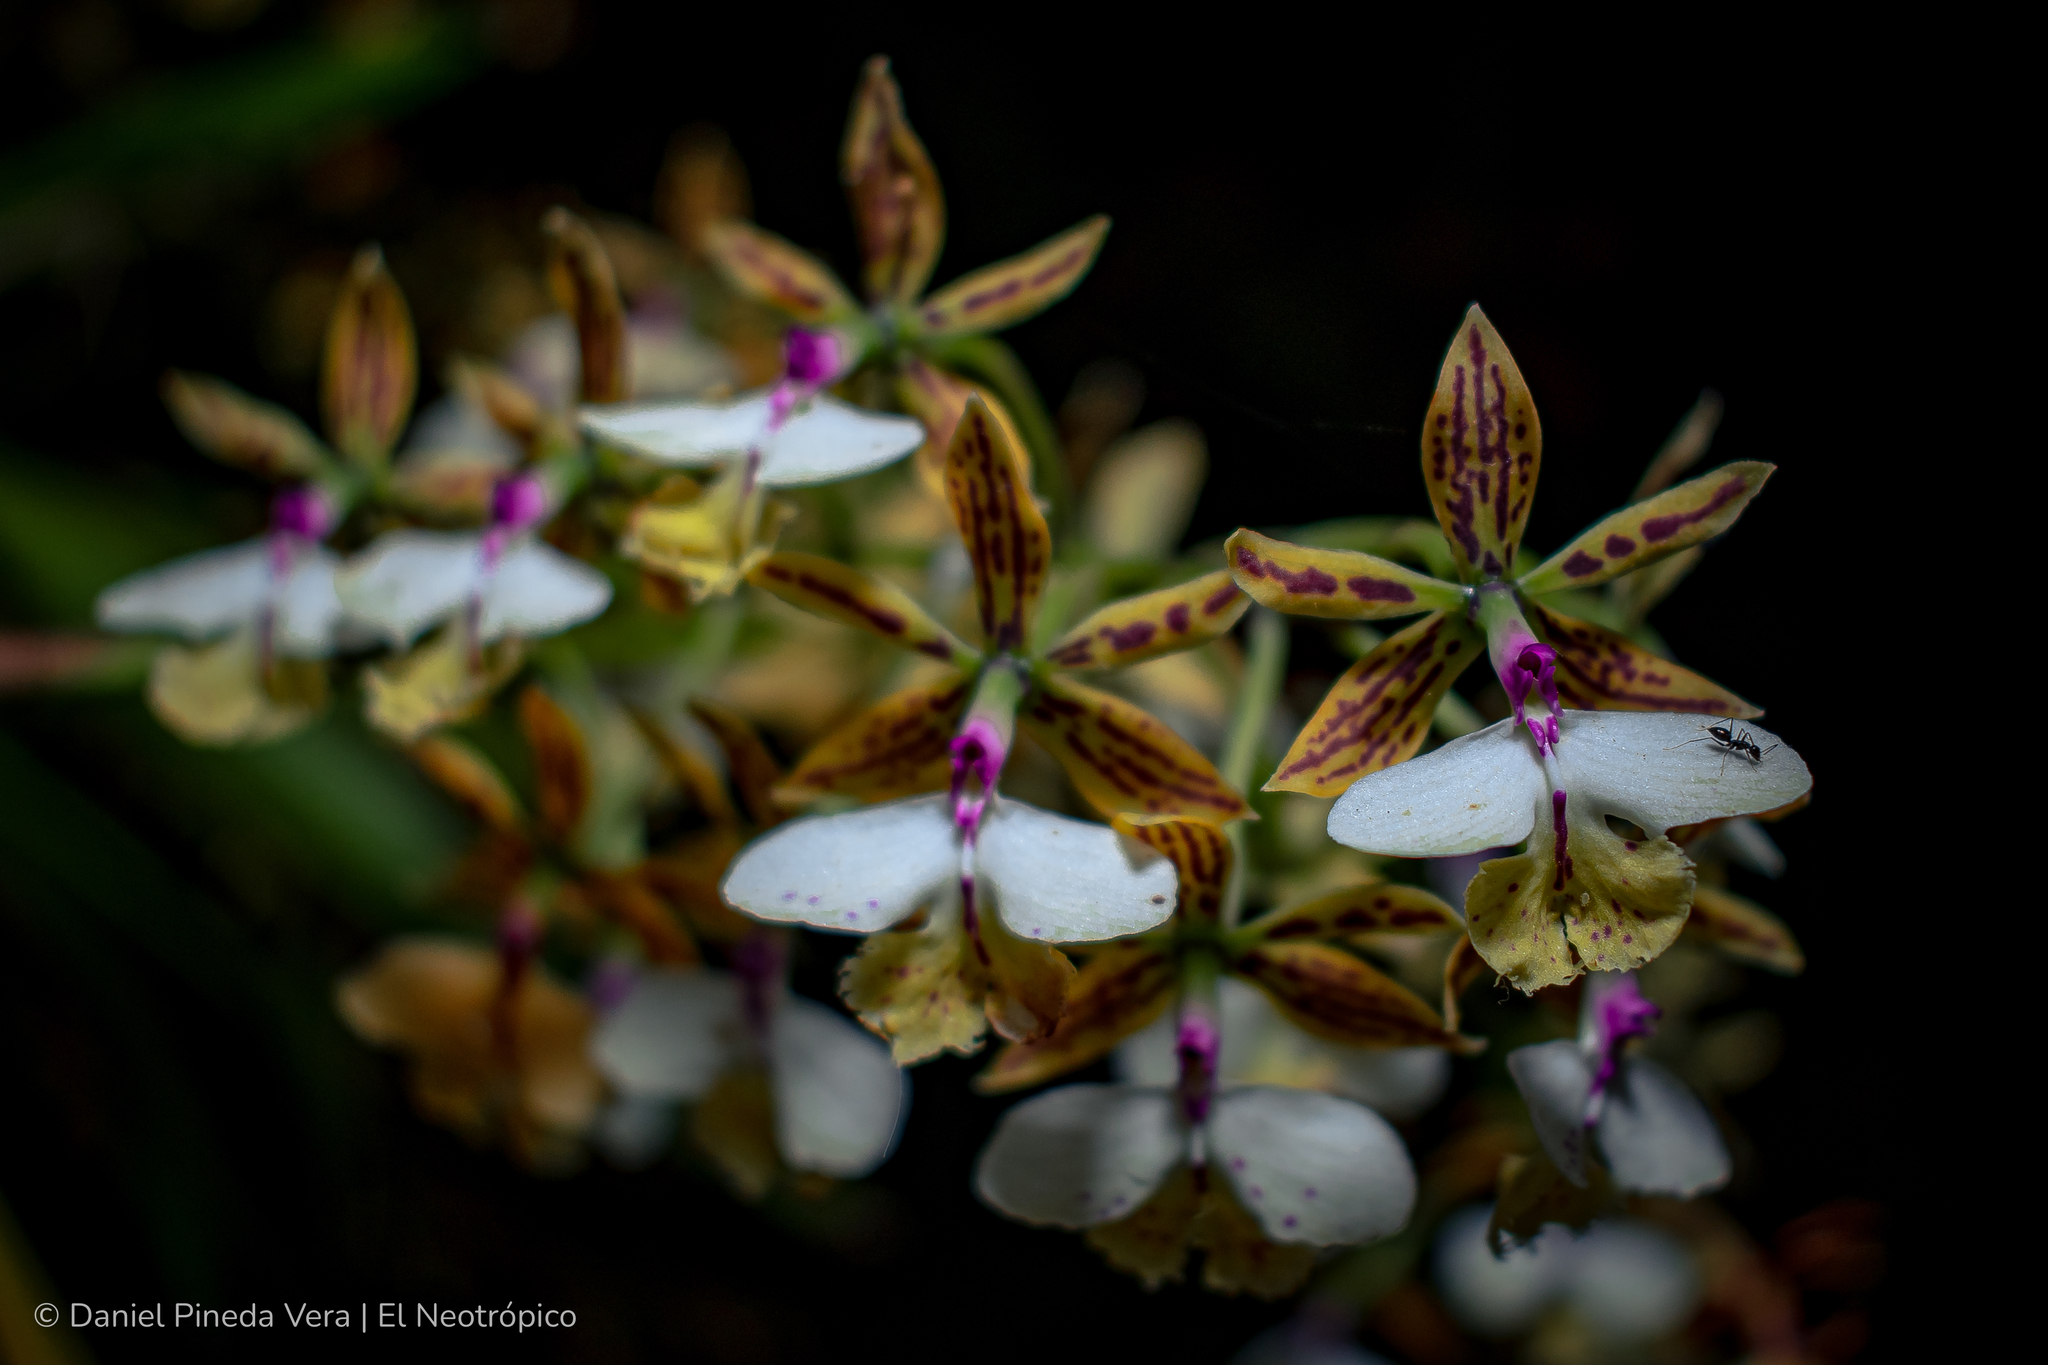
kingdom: Plantae
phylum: Tracheophyta
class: Liliopsida
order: Asparagales
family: Orchidaceae
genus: Epidendrum
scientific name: Epidendrum stamfordianum
